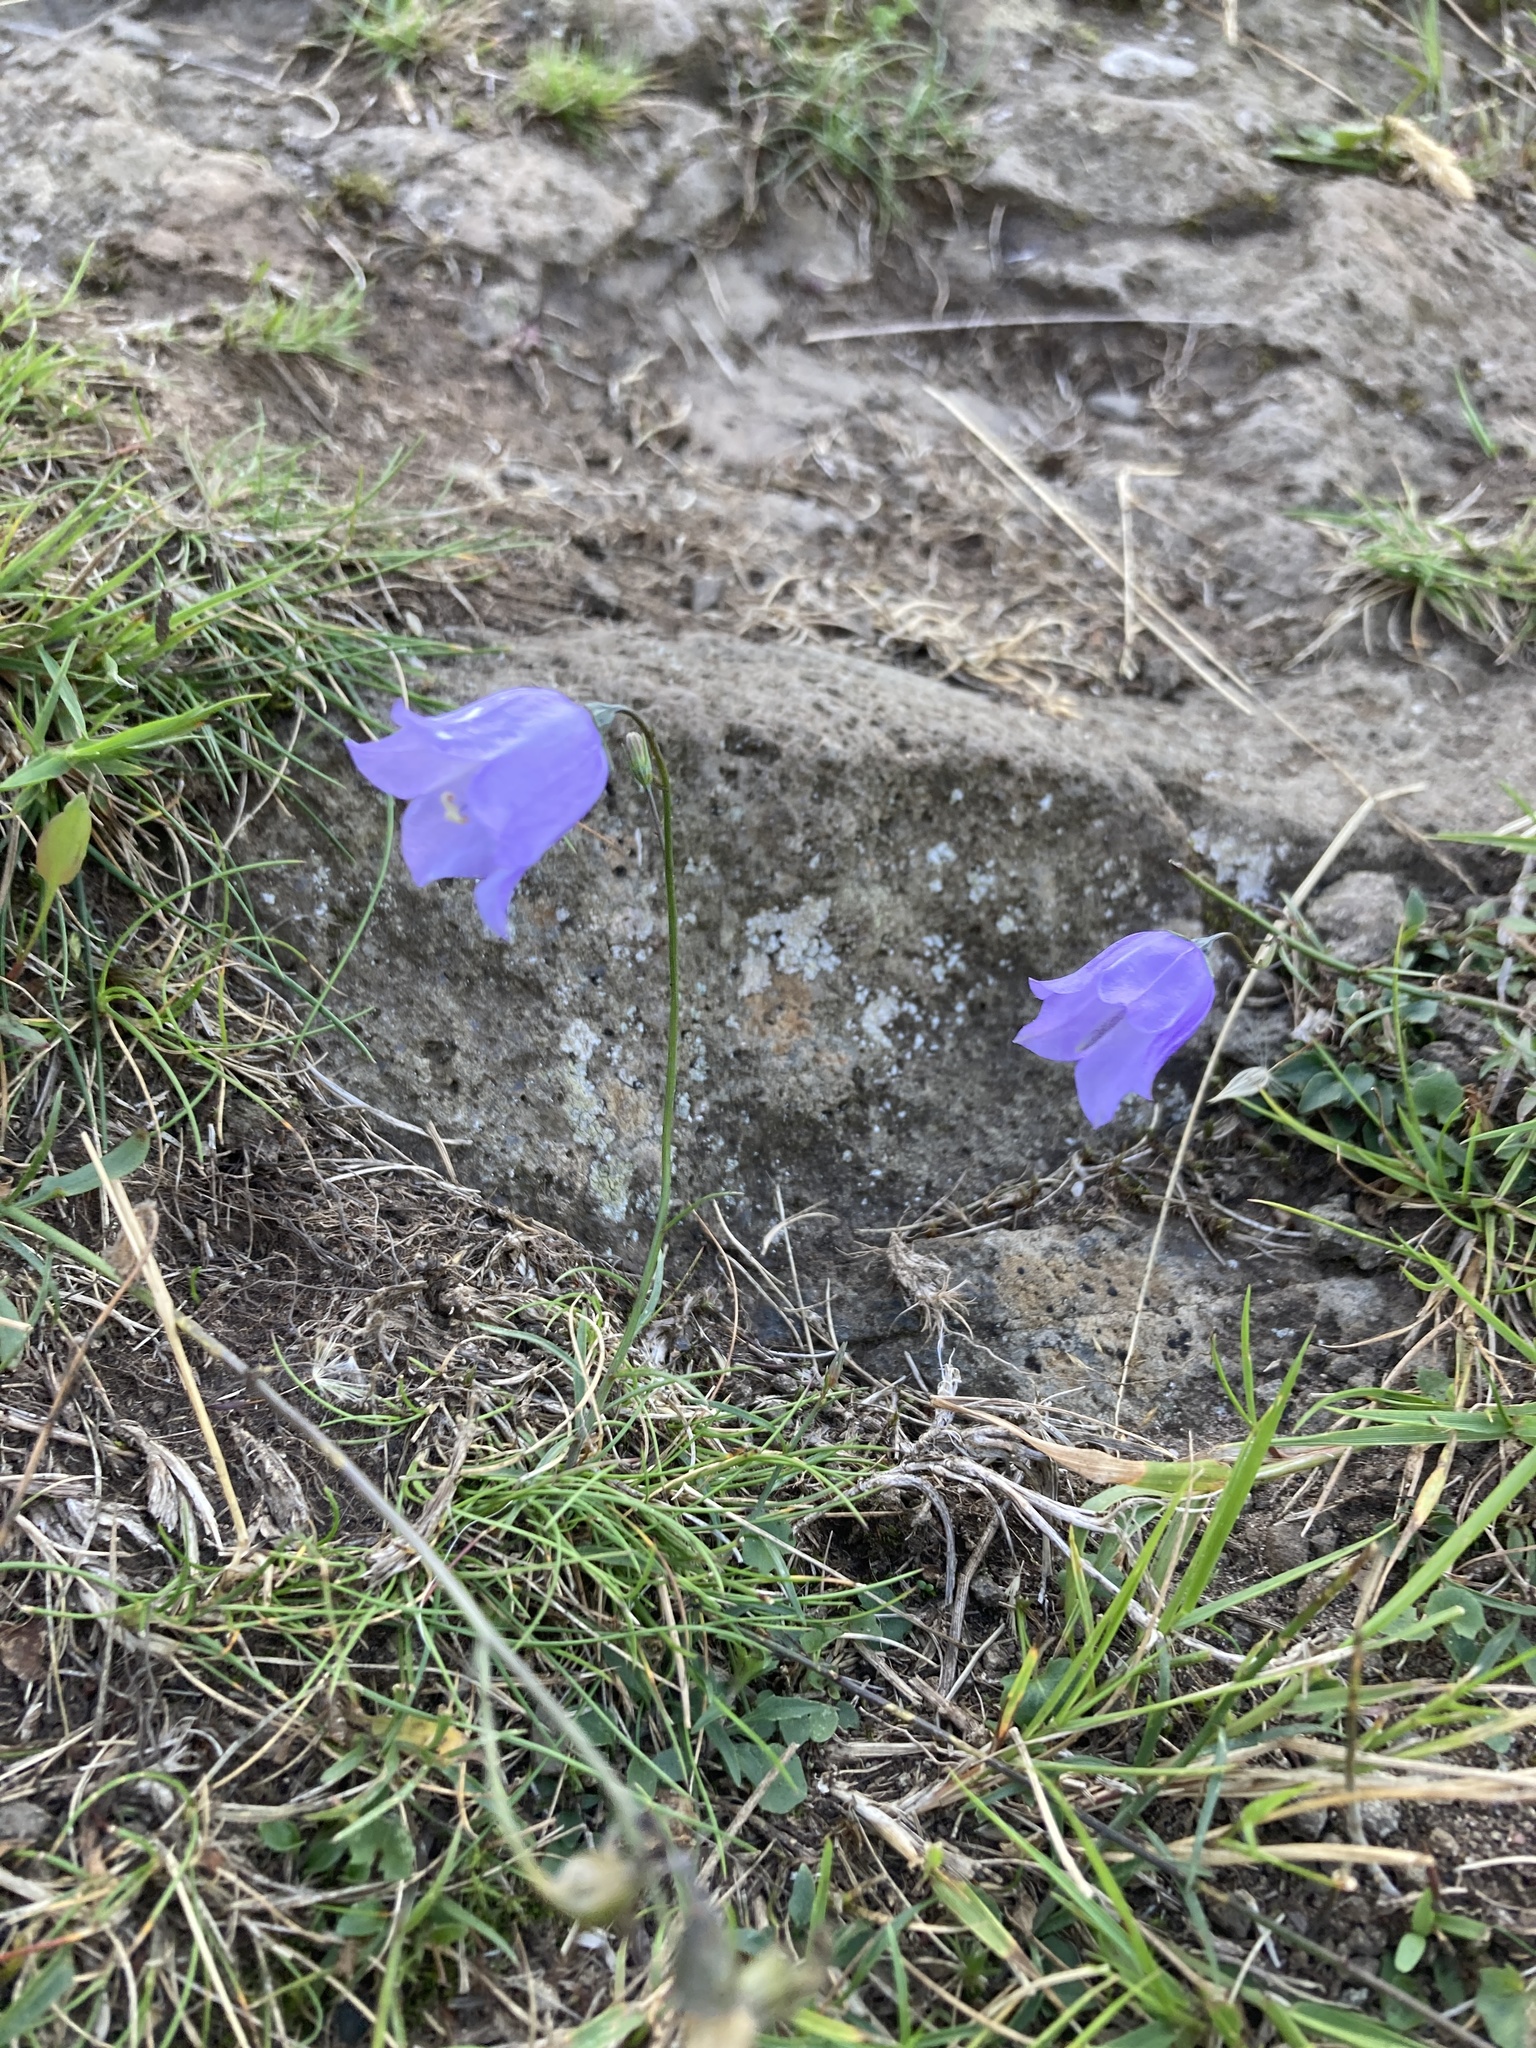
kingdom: Plantae
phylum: Tracheophyta
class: Magnoliopsida
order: Asterales
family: Campanulaceae
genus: Campanula
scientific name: Campanula rotundifolia
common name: Harebell
